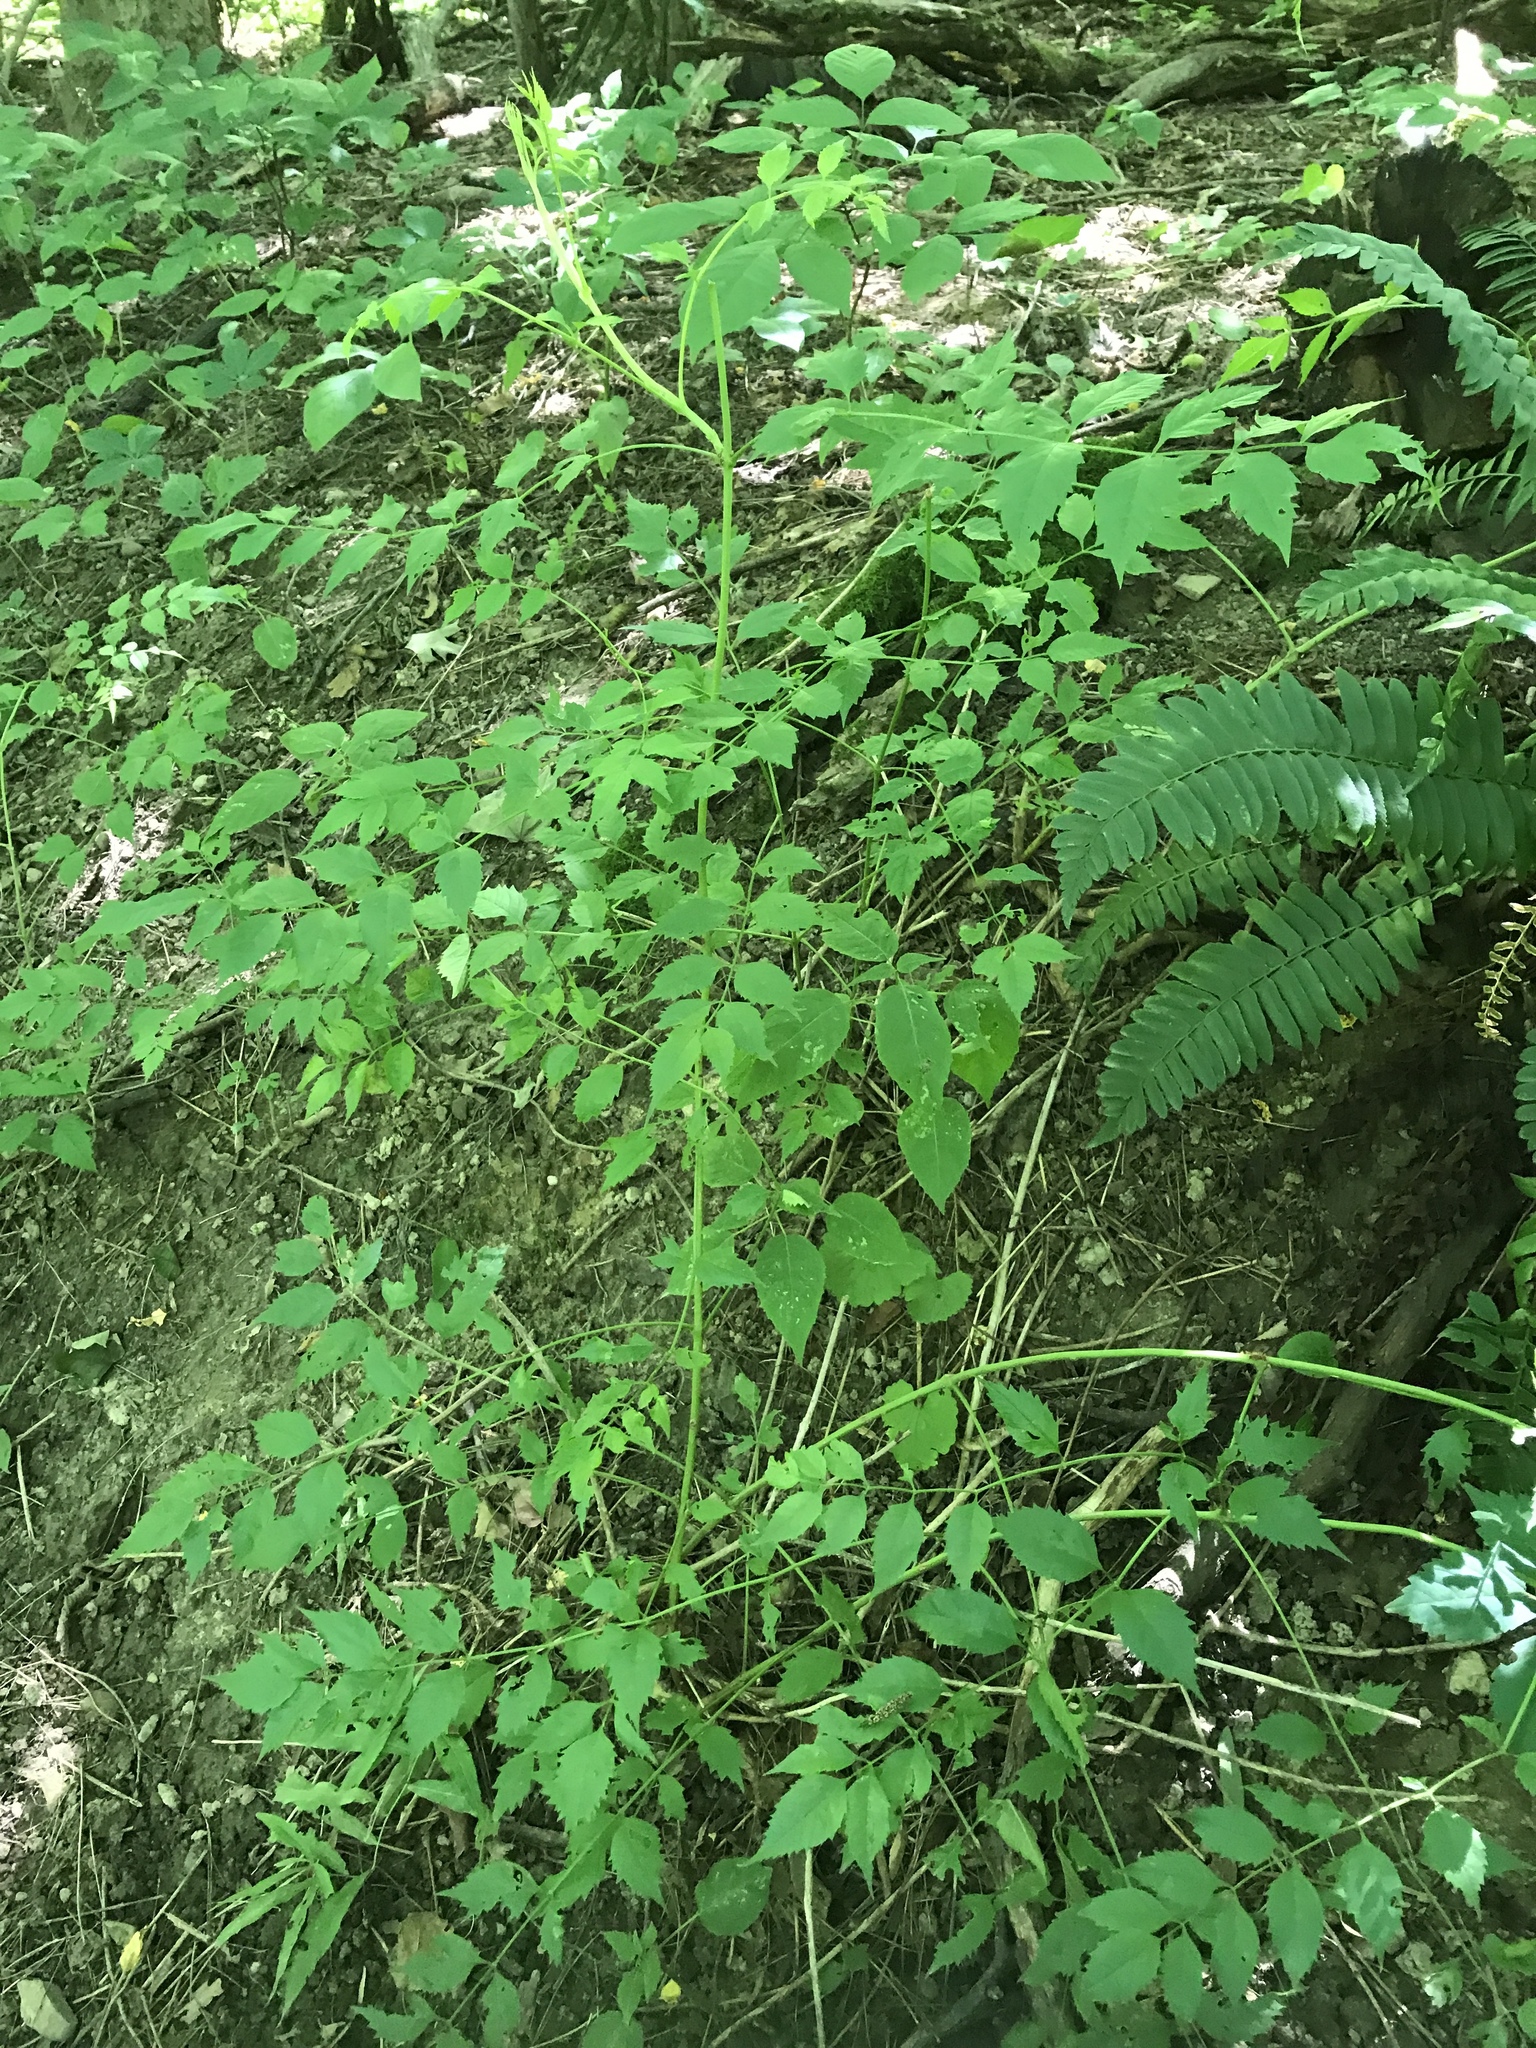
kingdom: Plantae
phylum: Tracheophyta
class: Magnoliopsida
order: Lamiales
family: Bignoniaceae
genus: Campsis
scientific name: Campsis radicans
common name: Trumpet-creeper
